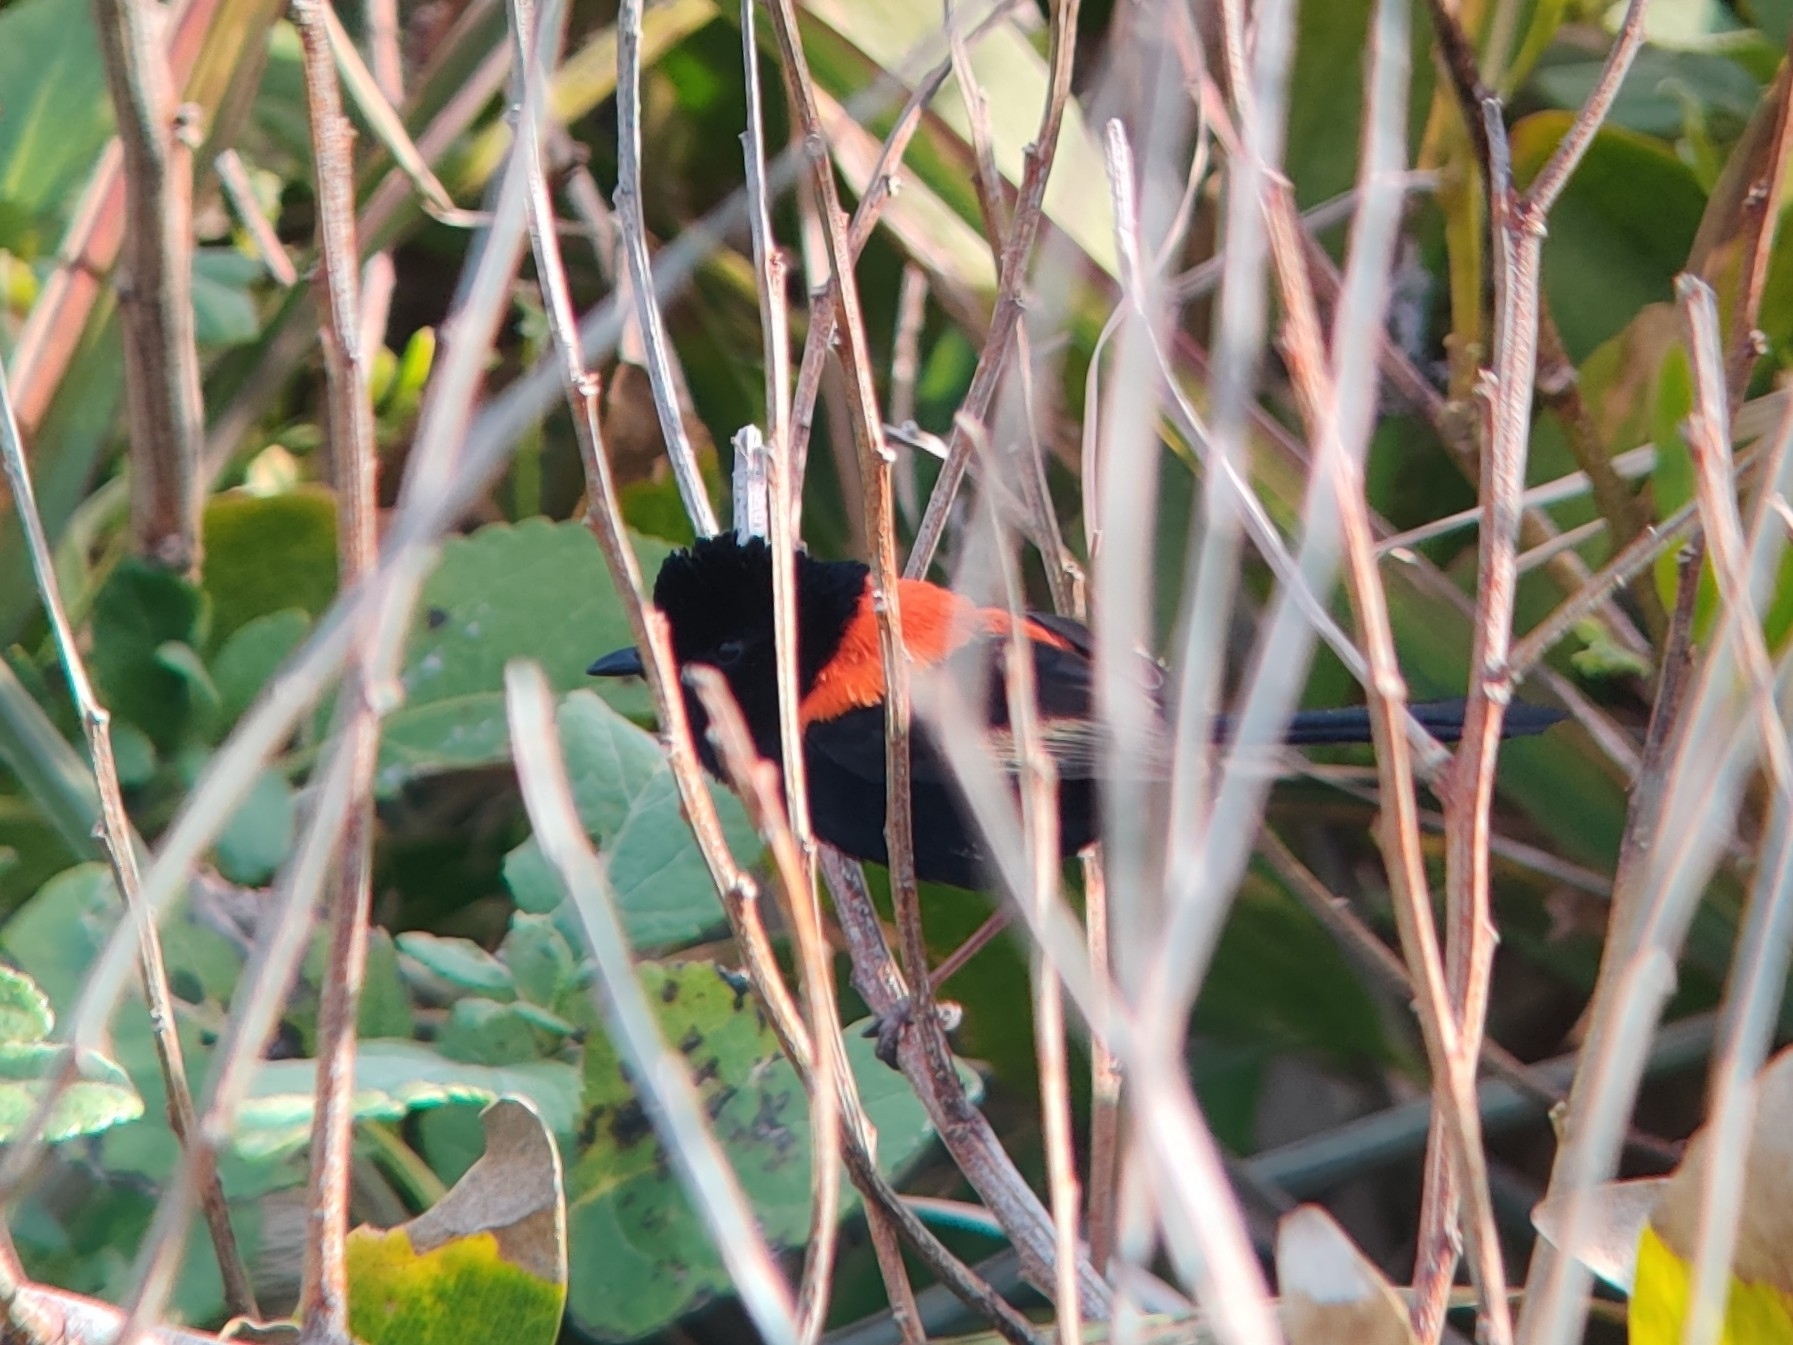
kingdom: Animalia
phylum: Chordata
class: Aves
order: Passeriformes
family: Maluridae
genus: Malurus
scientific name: Malurus melanocephalus
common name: Red-backed fairywren
